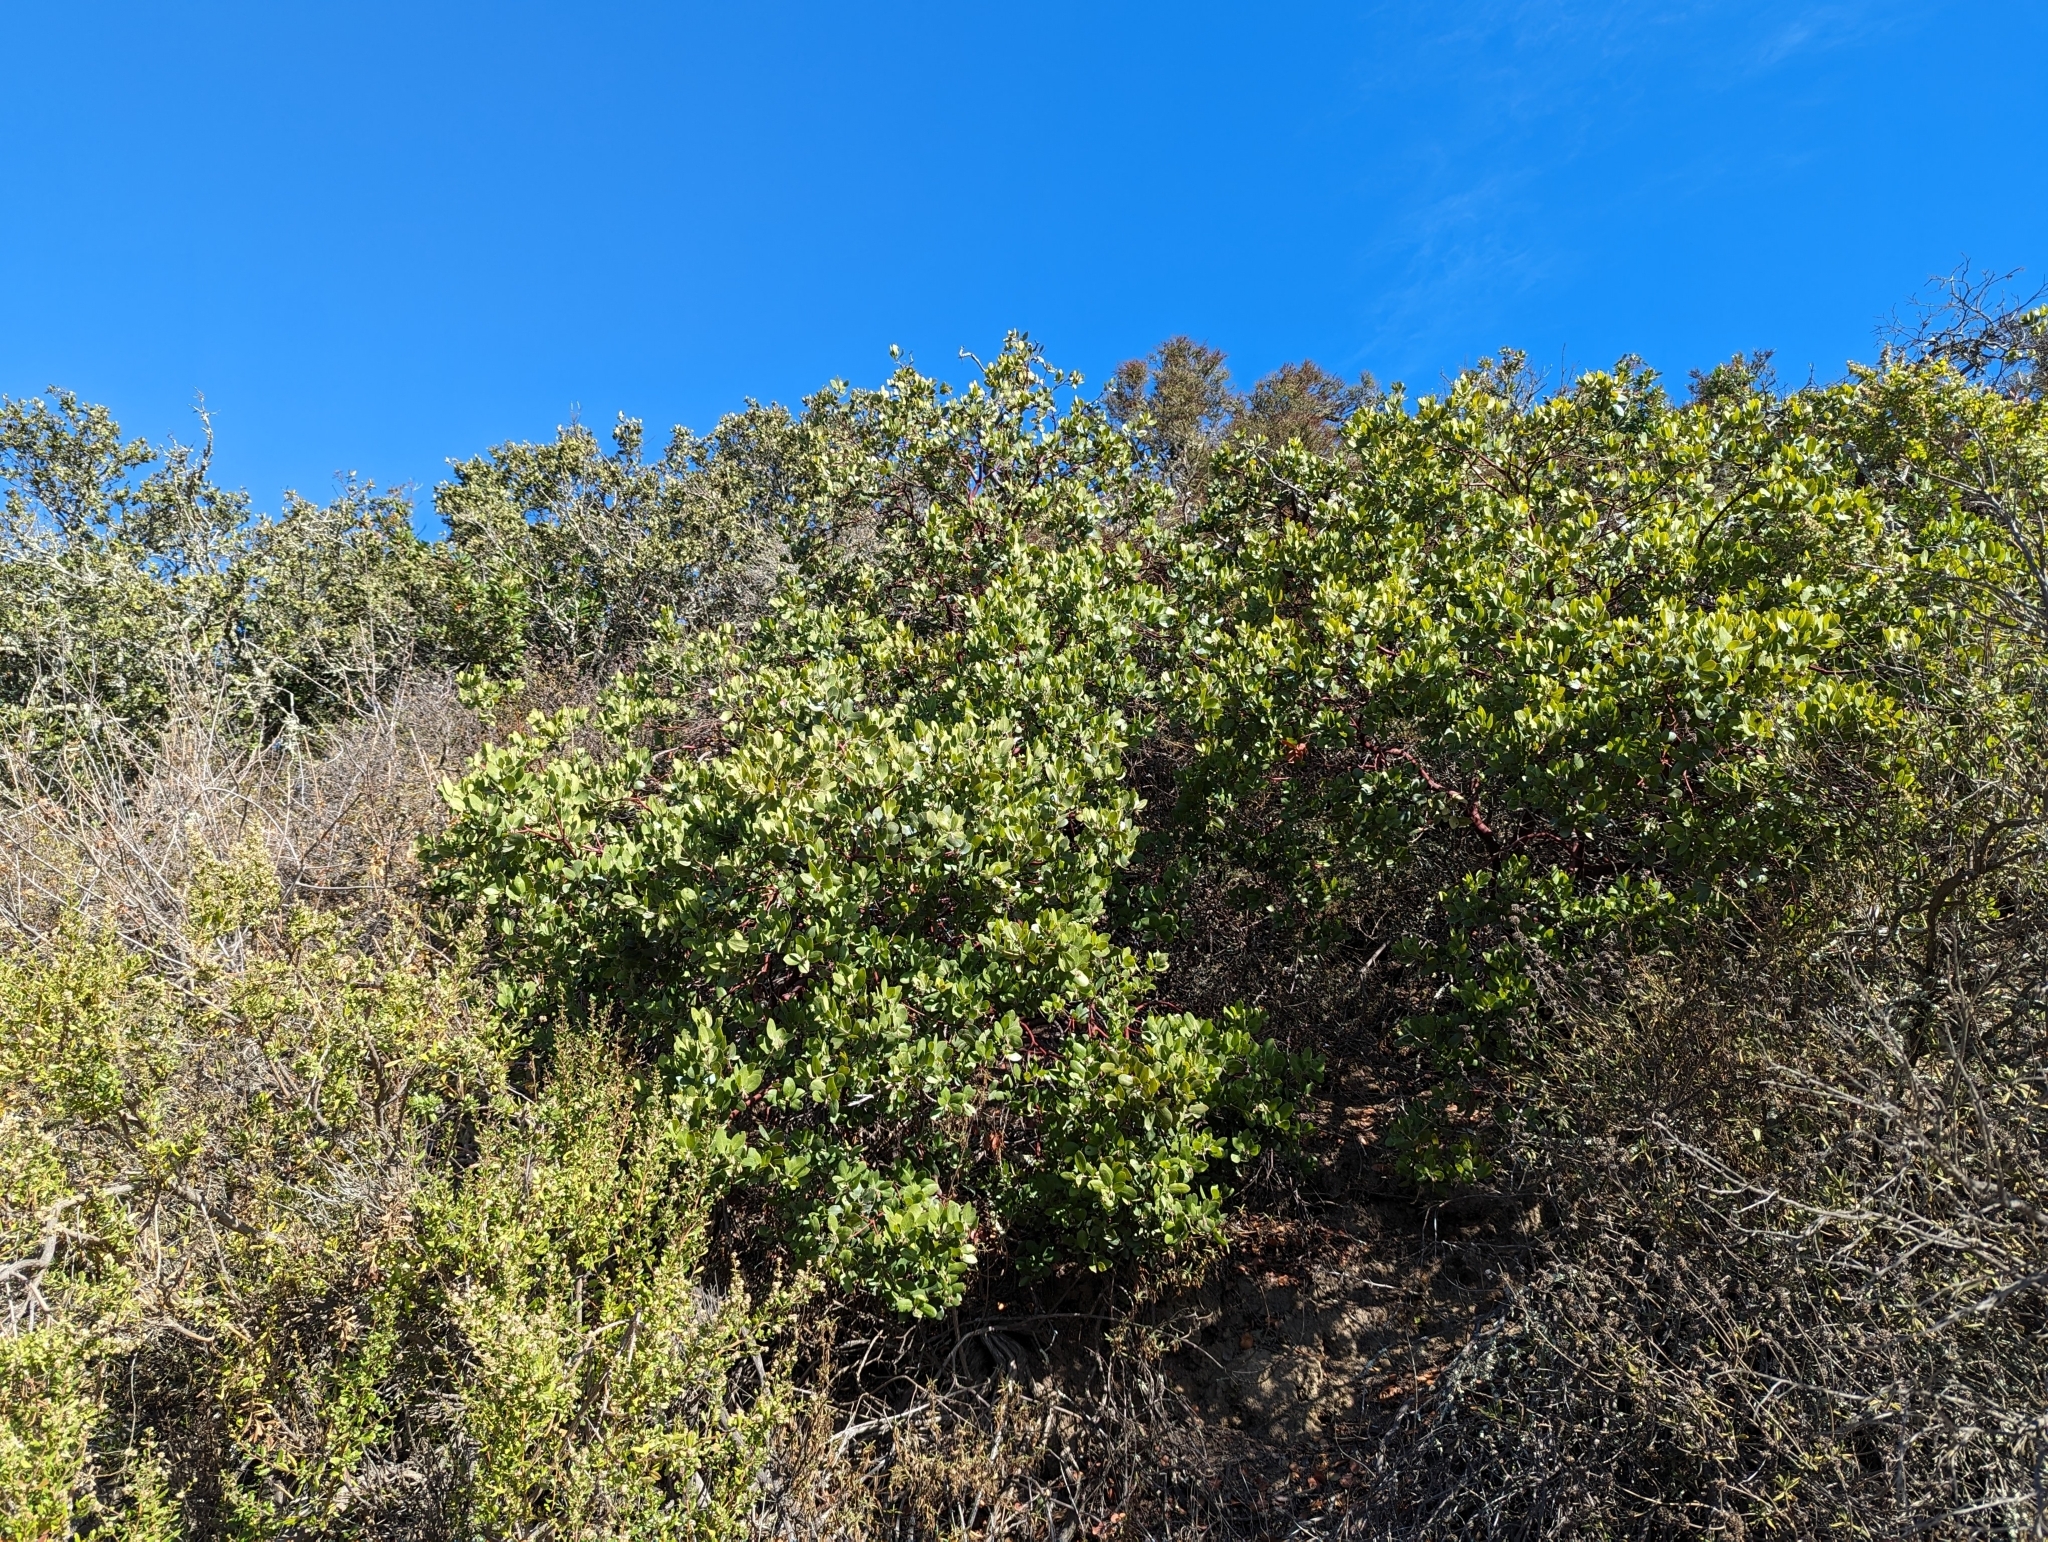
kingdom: Plantae
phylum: Tracheophyta
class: Magnoliopsida
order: Ericales
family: Ericaceae
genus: Arctostaphylos
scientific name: Arctostaphylos crustacea
